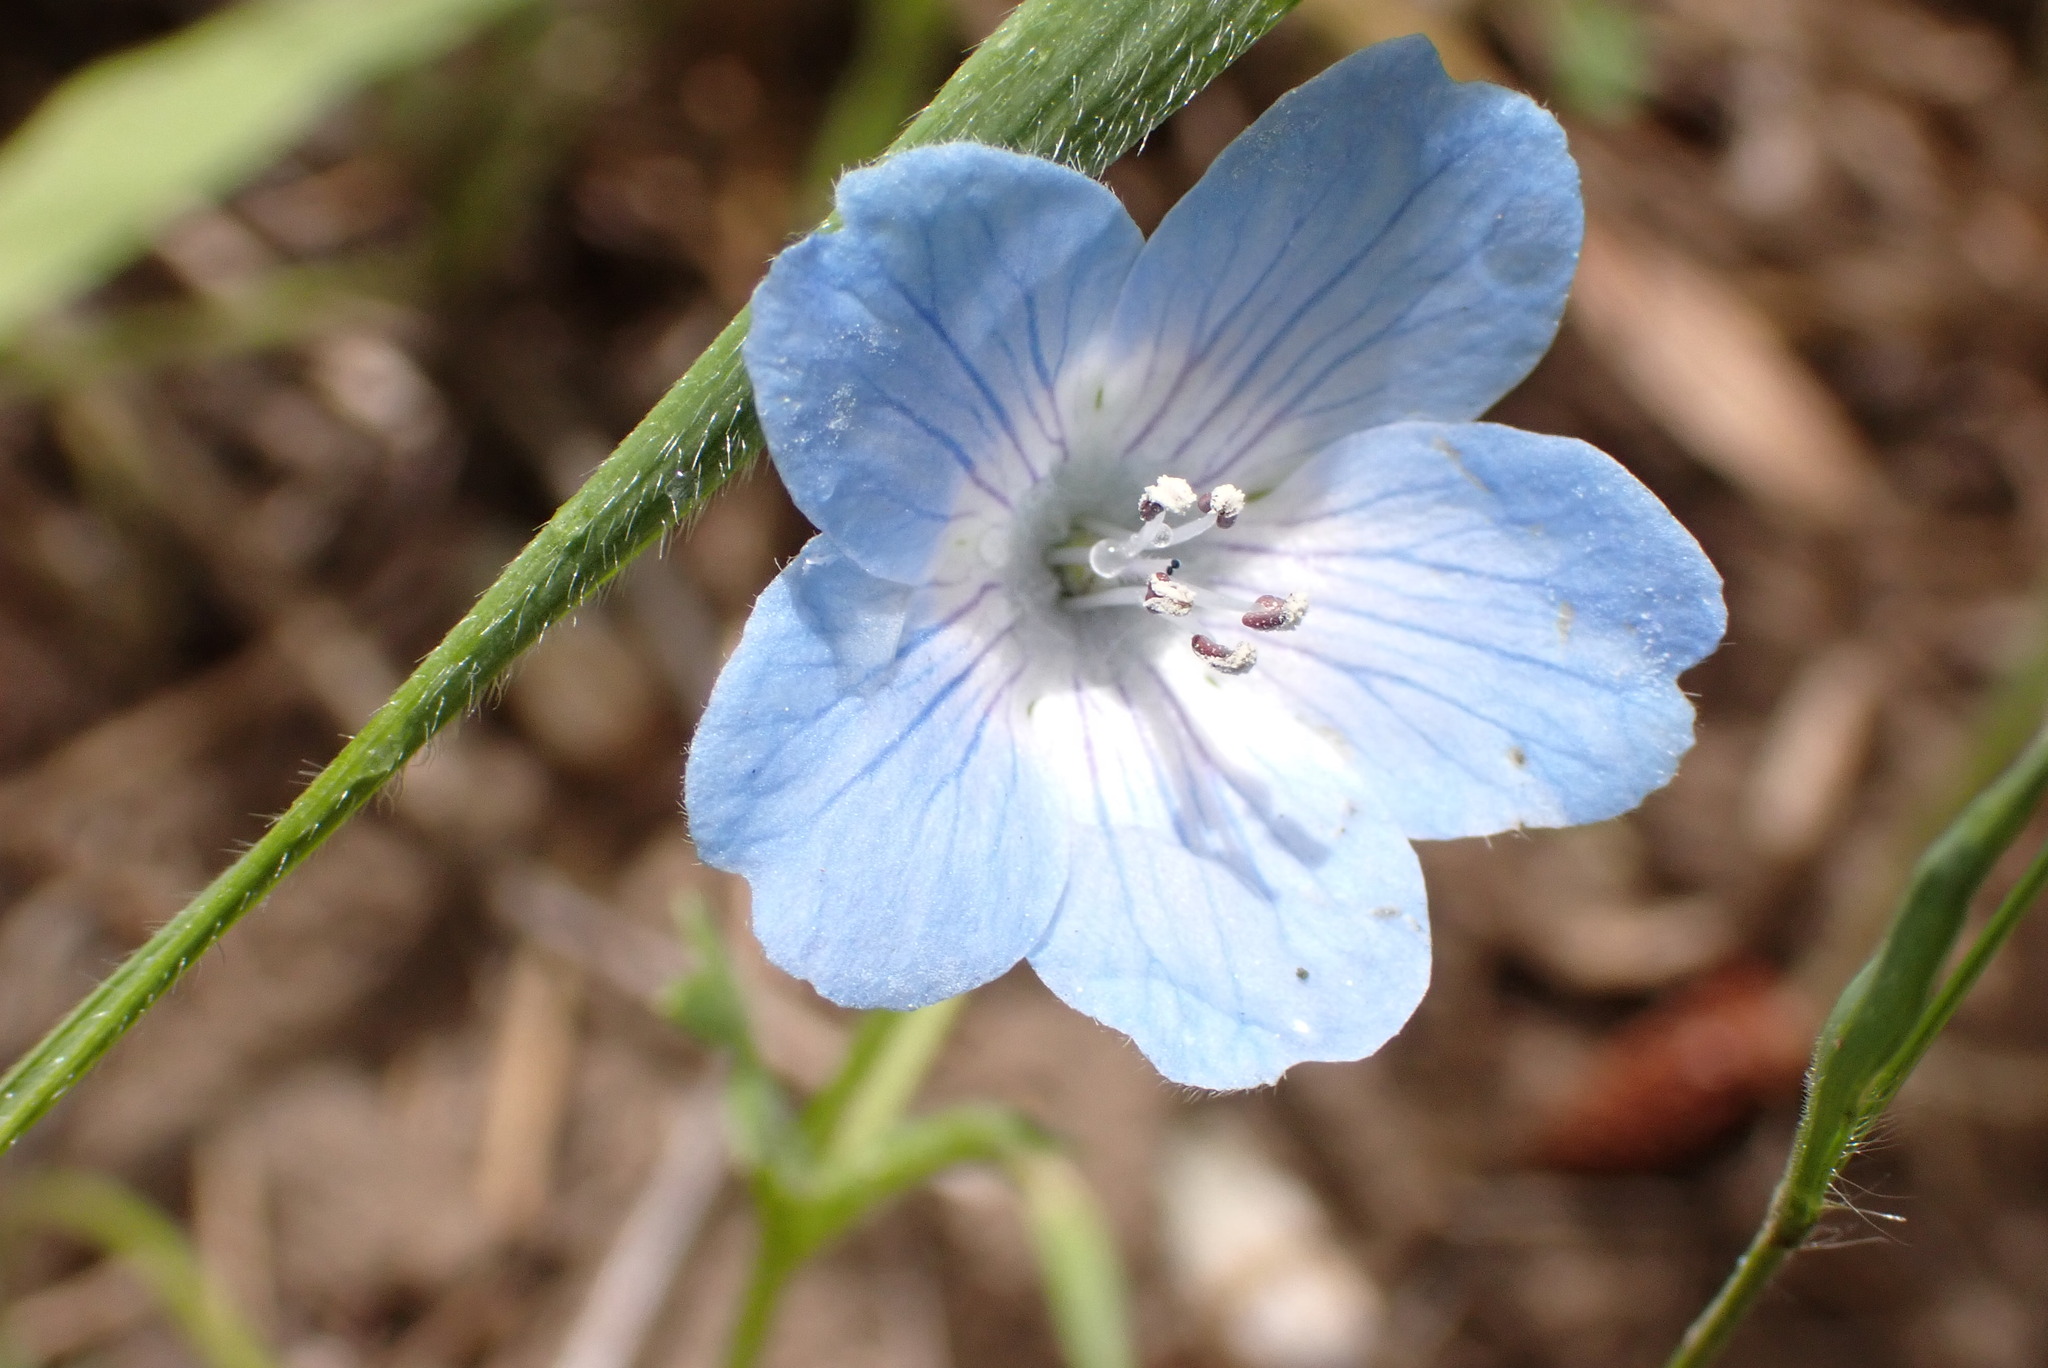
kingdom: Plantae
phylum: Tracheophyta
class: Magnoliopsida
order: Boraginales
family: Hydrophyllaceae
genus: Nemophila
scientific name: Nemophila menziesii
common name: Baby's-blue-eyes
